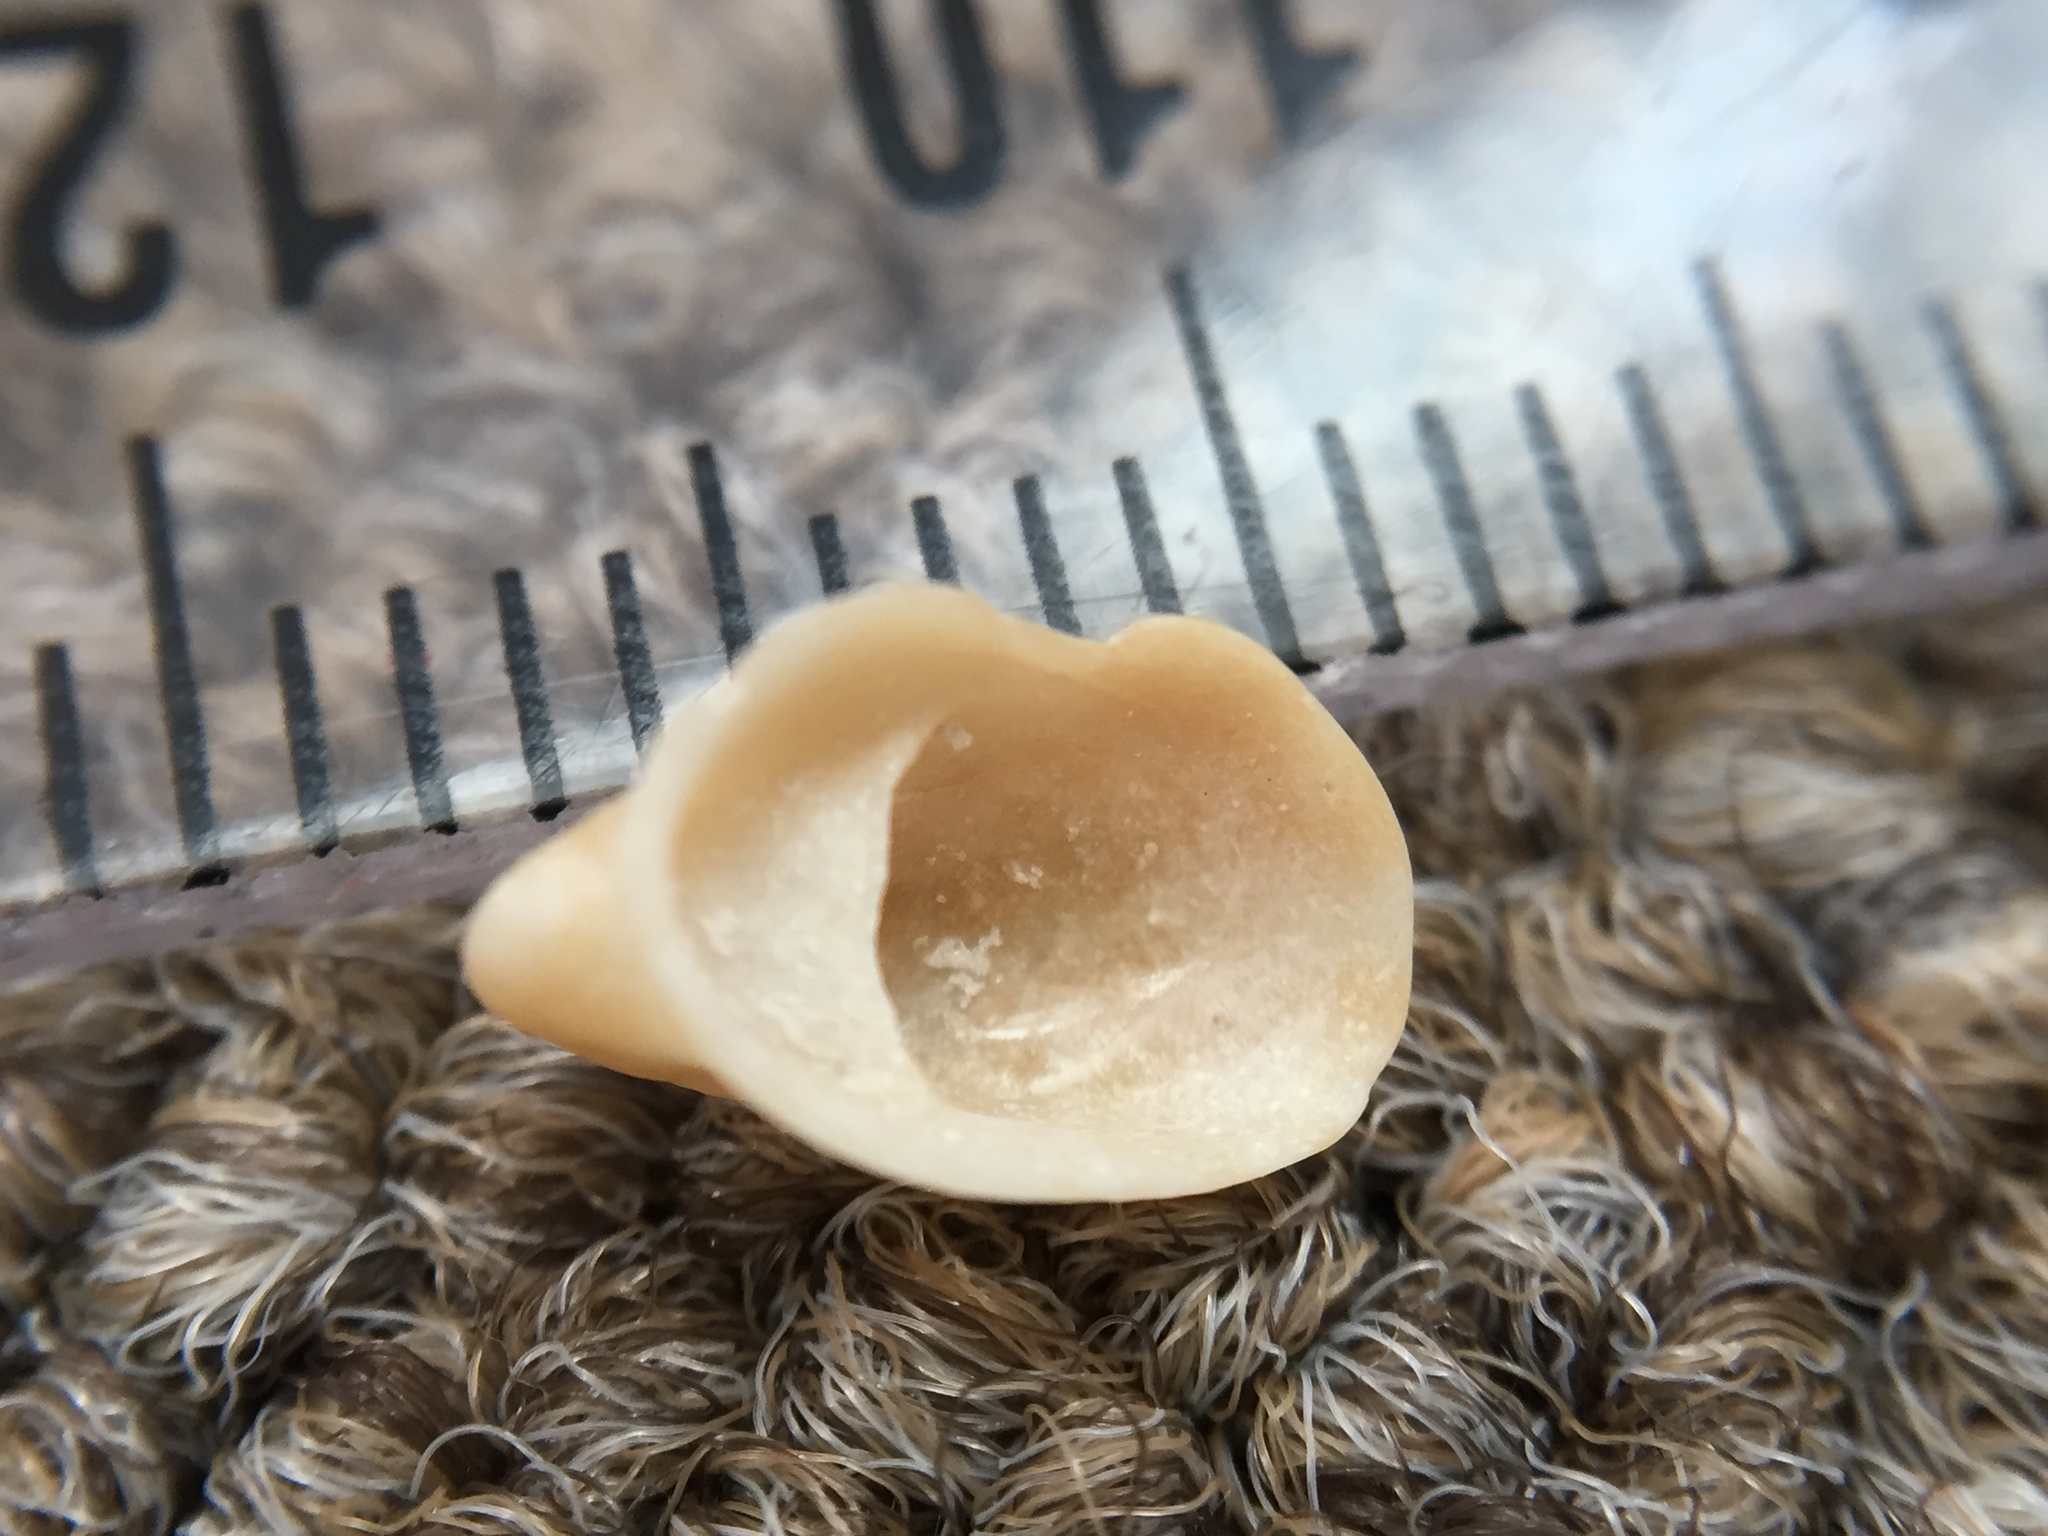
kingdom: Animalia
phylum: Mollusca
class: Gastropoda
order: Littorinimorpha
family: Calyptraeidae
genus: Maoricrypta
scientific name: Maoricrypta youngi
